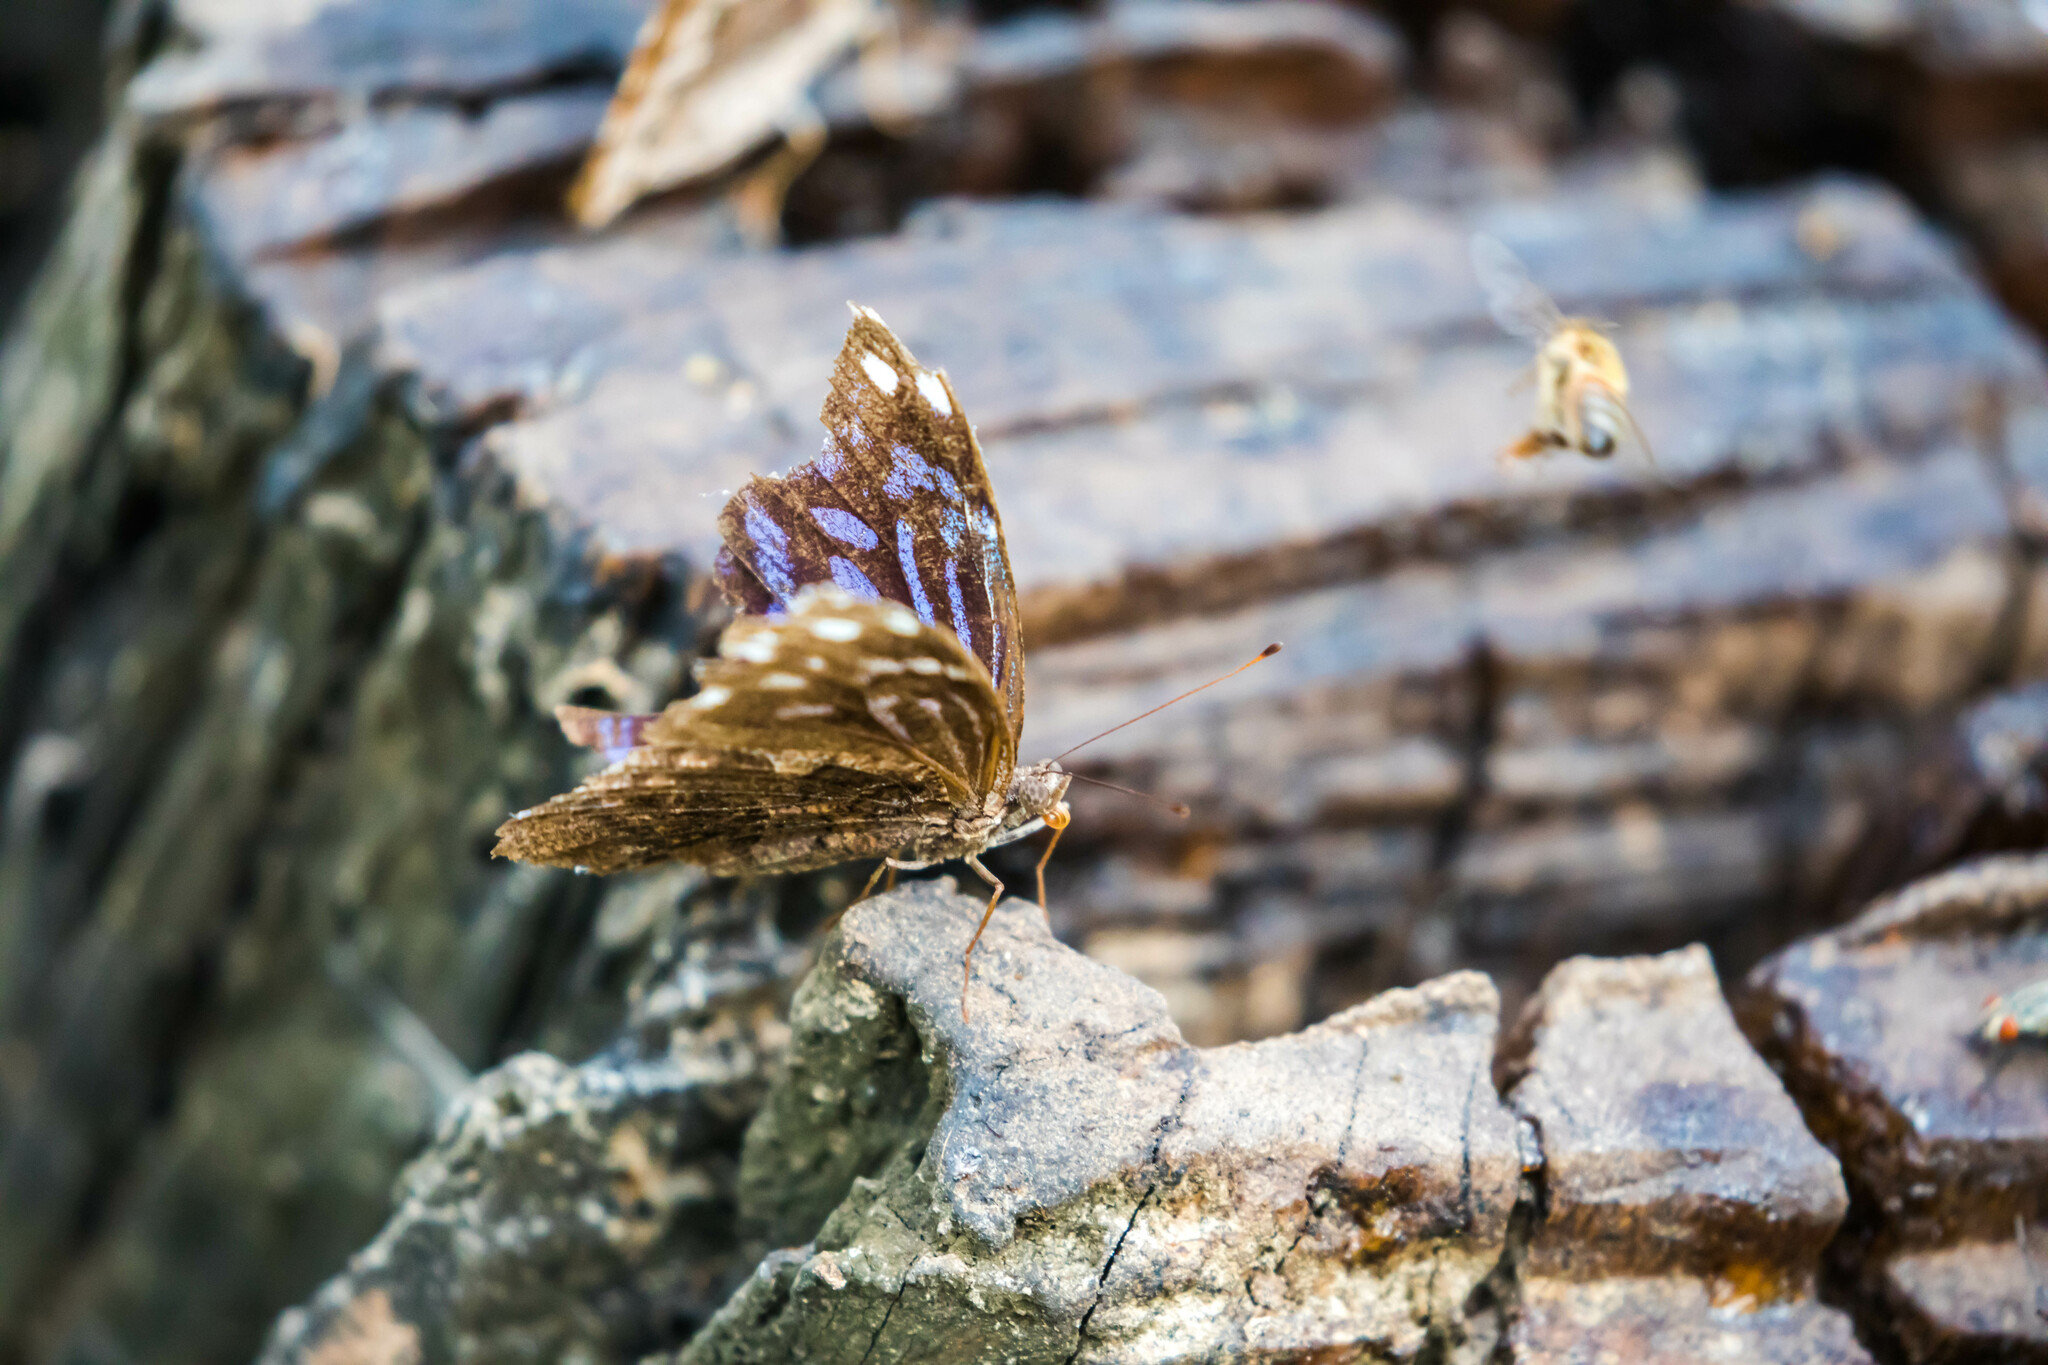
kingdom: Animalia
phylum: Arthropoda
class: Insecta
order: Lepidoptera
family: Nymphalidae
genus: Myscelia
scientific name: Myscelia ethusa
